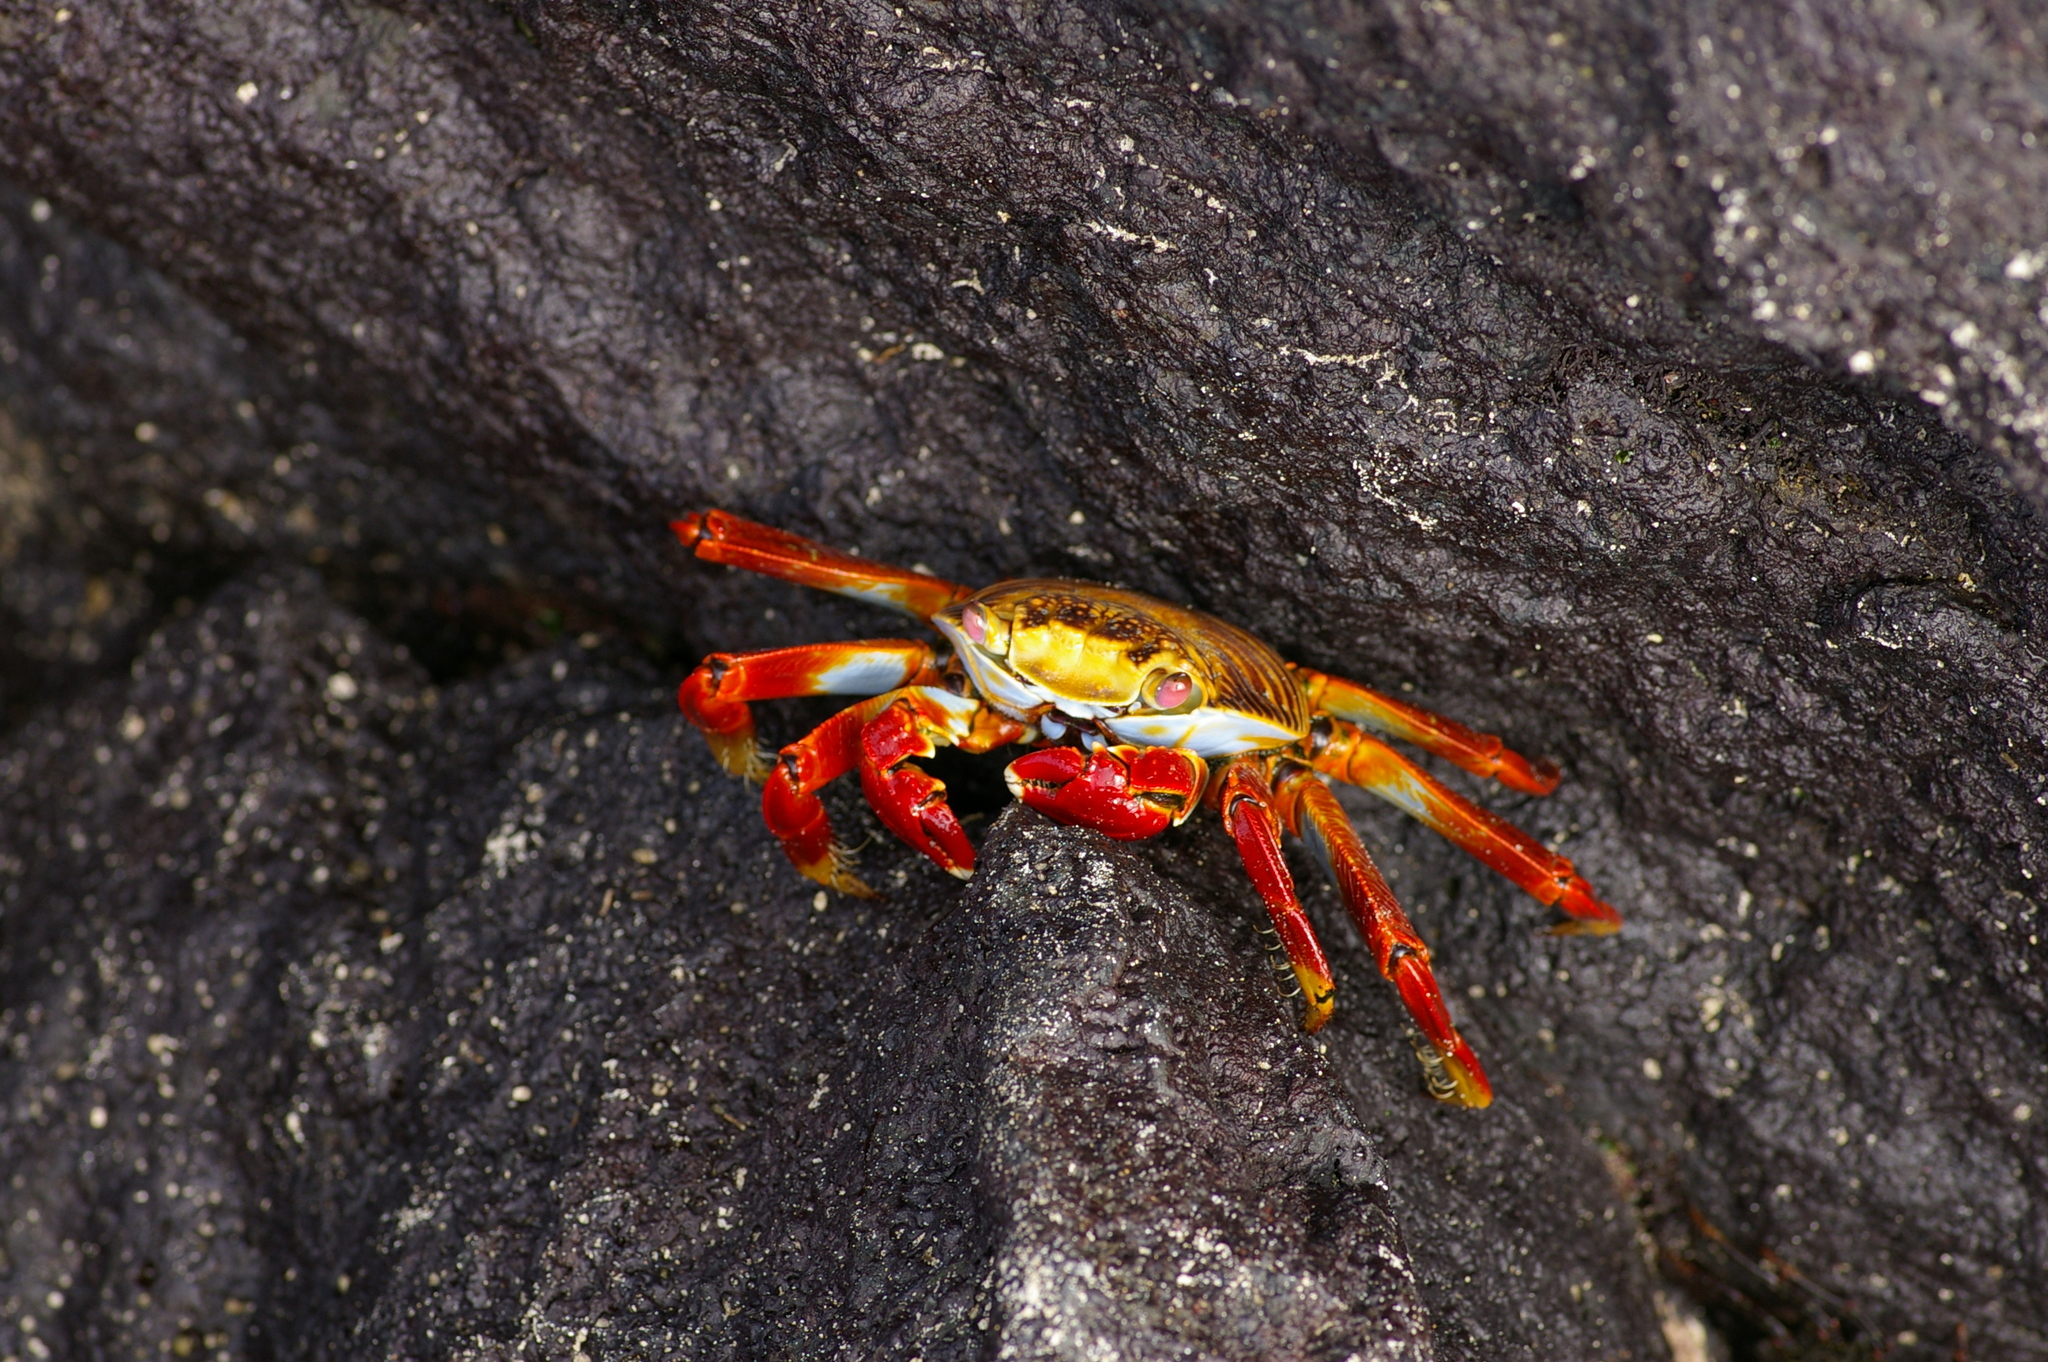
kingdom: Animalia
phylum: Arthropoda
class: Malacostraca
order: Decapoda
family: Grapsidae
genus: Grapsus
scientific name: Grapsus grapsus
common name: Sally lightfoot
